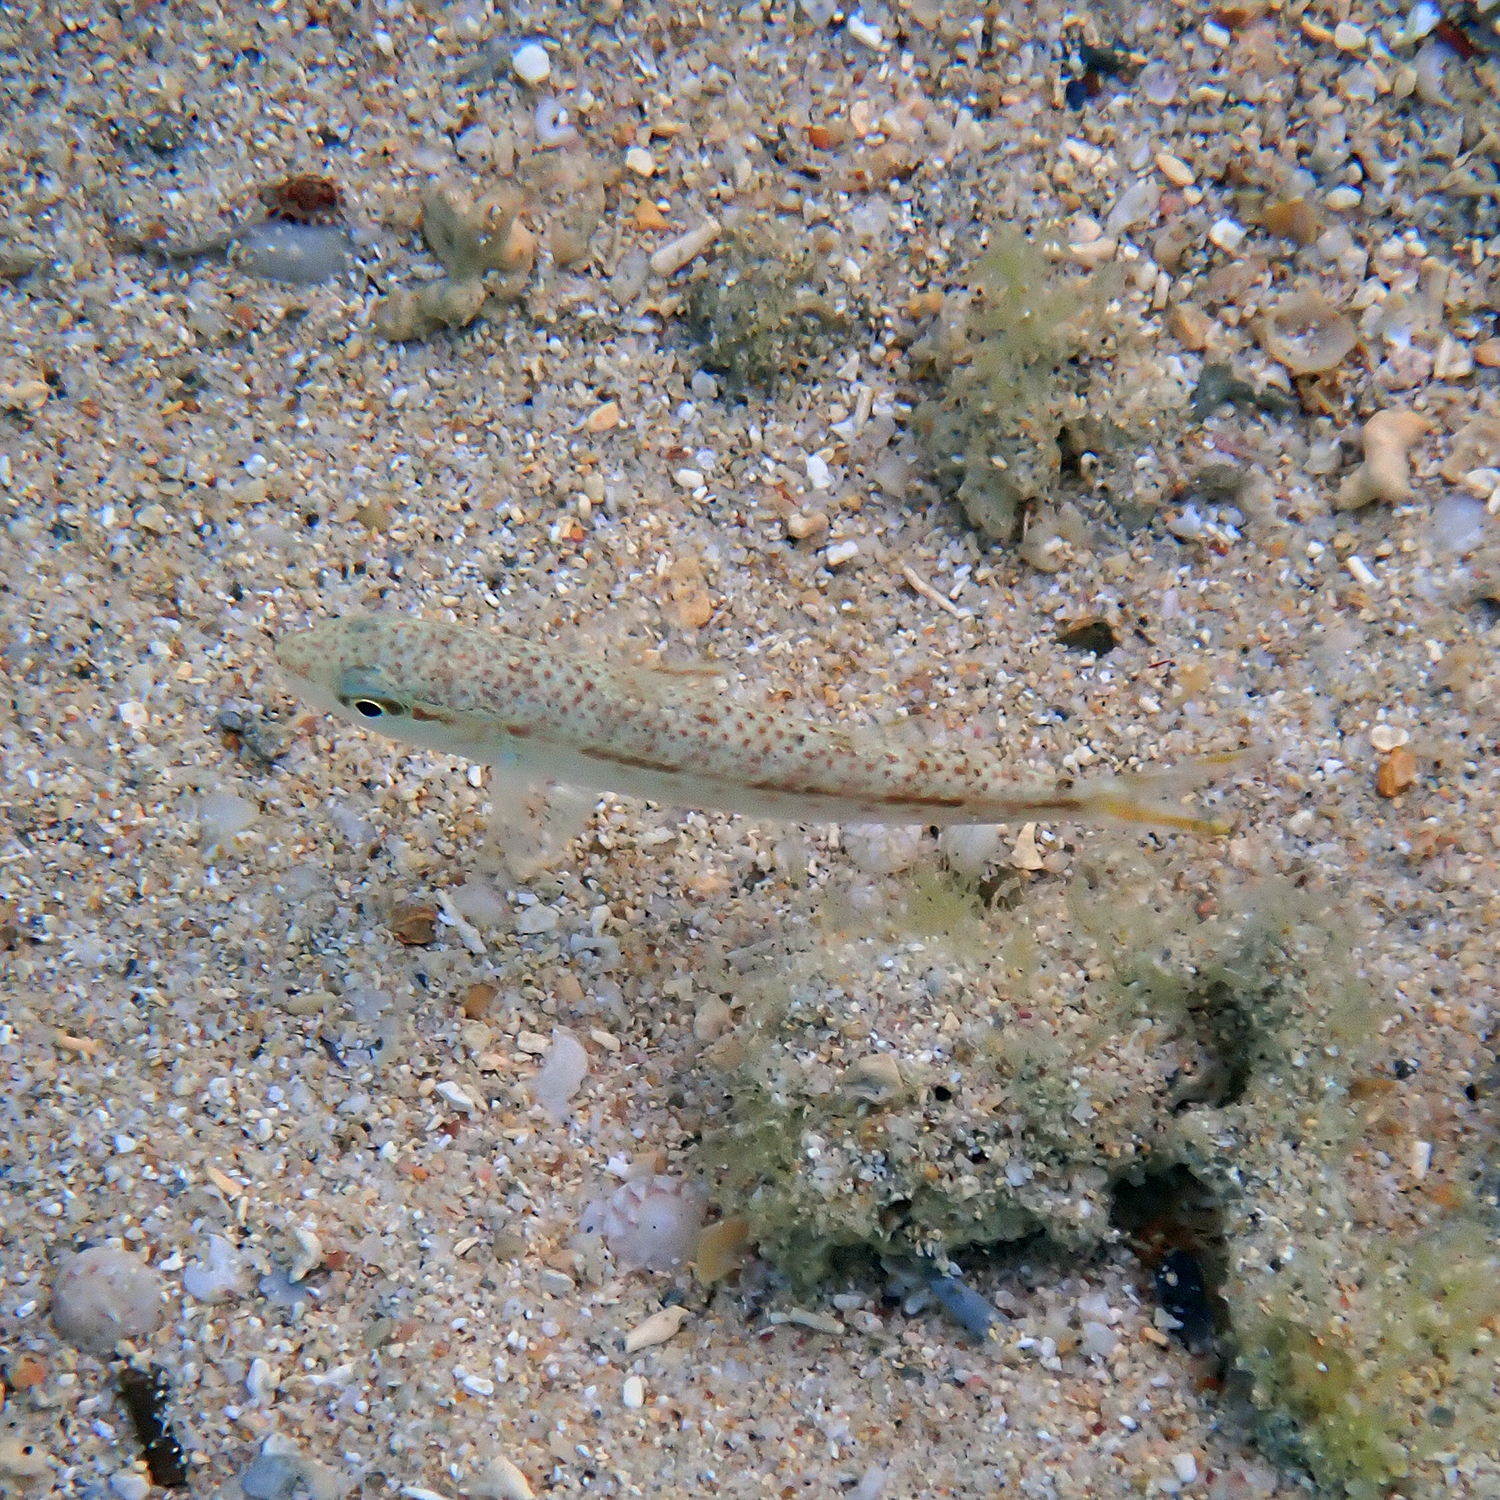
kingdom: Animalia
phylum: Chordata
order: Perciformes
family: Mullidae
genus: Upeneus
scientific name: Upeneus francisi
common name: Francis' goatfish
